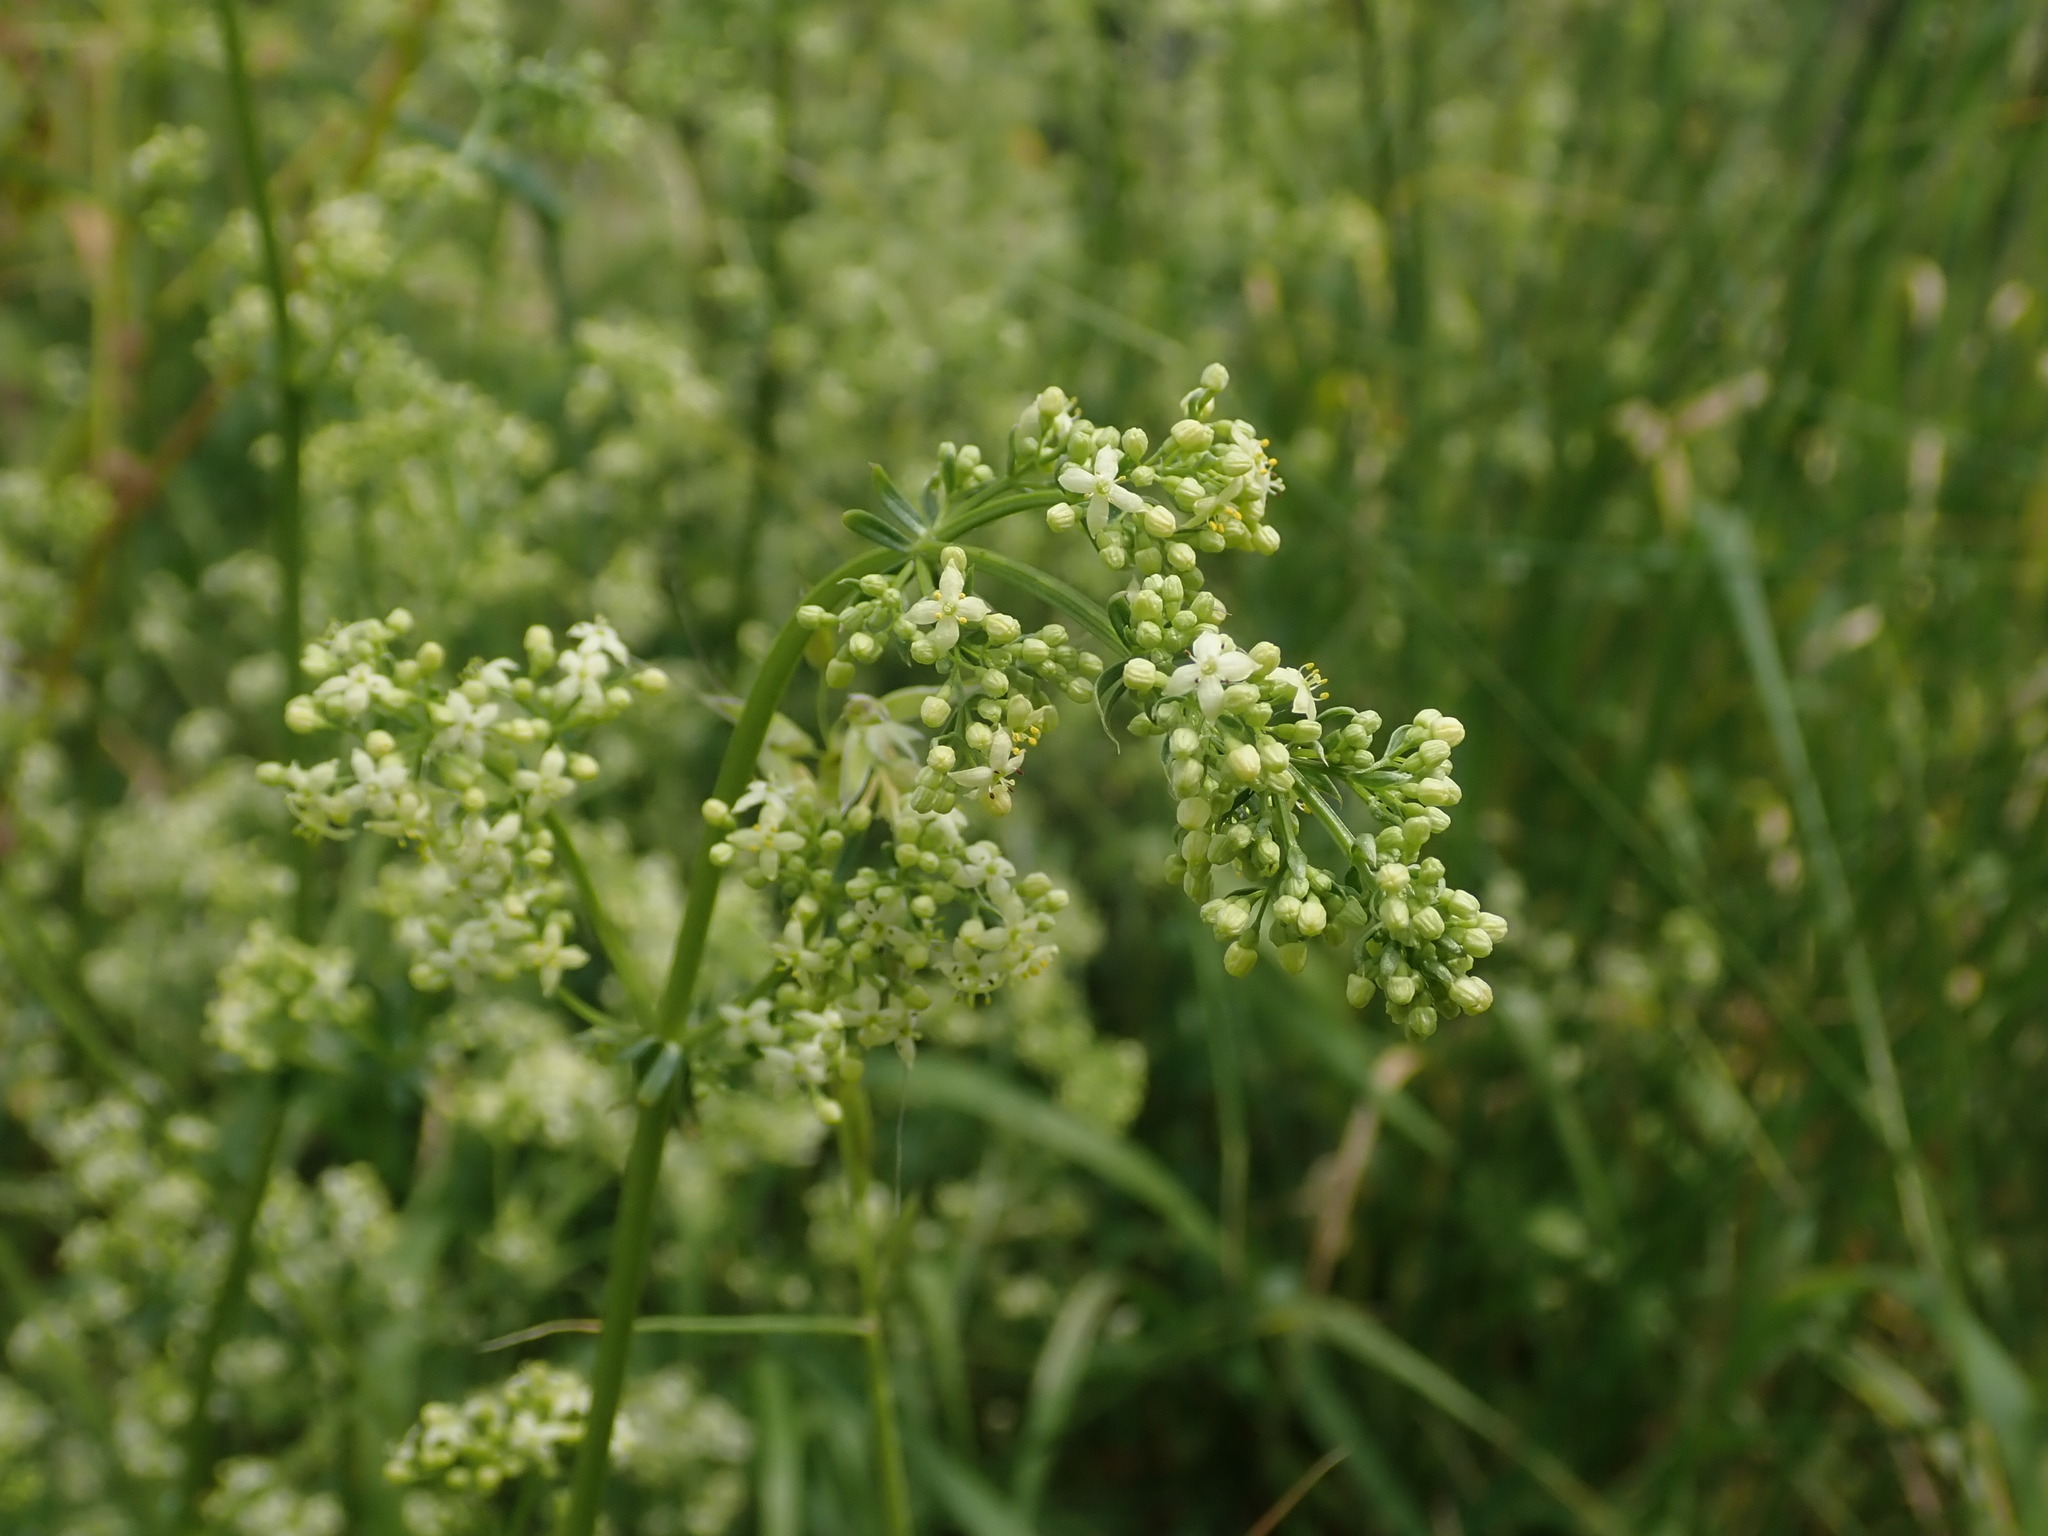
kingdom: Plantae
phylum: Tracheophyta
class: Magnoliopsida
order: Gentianales
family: Rubiaceae
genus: Galium
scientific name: Galium pomeranicum
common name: Bedstraw
